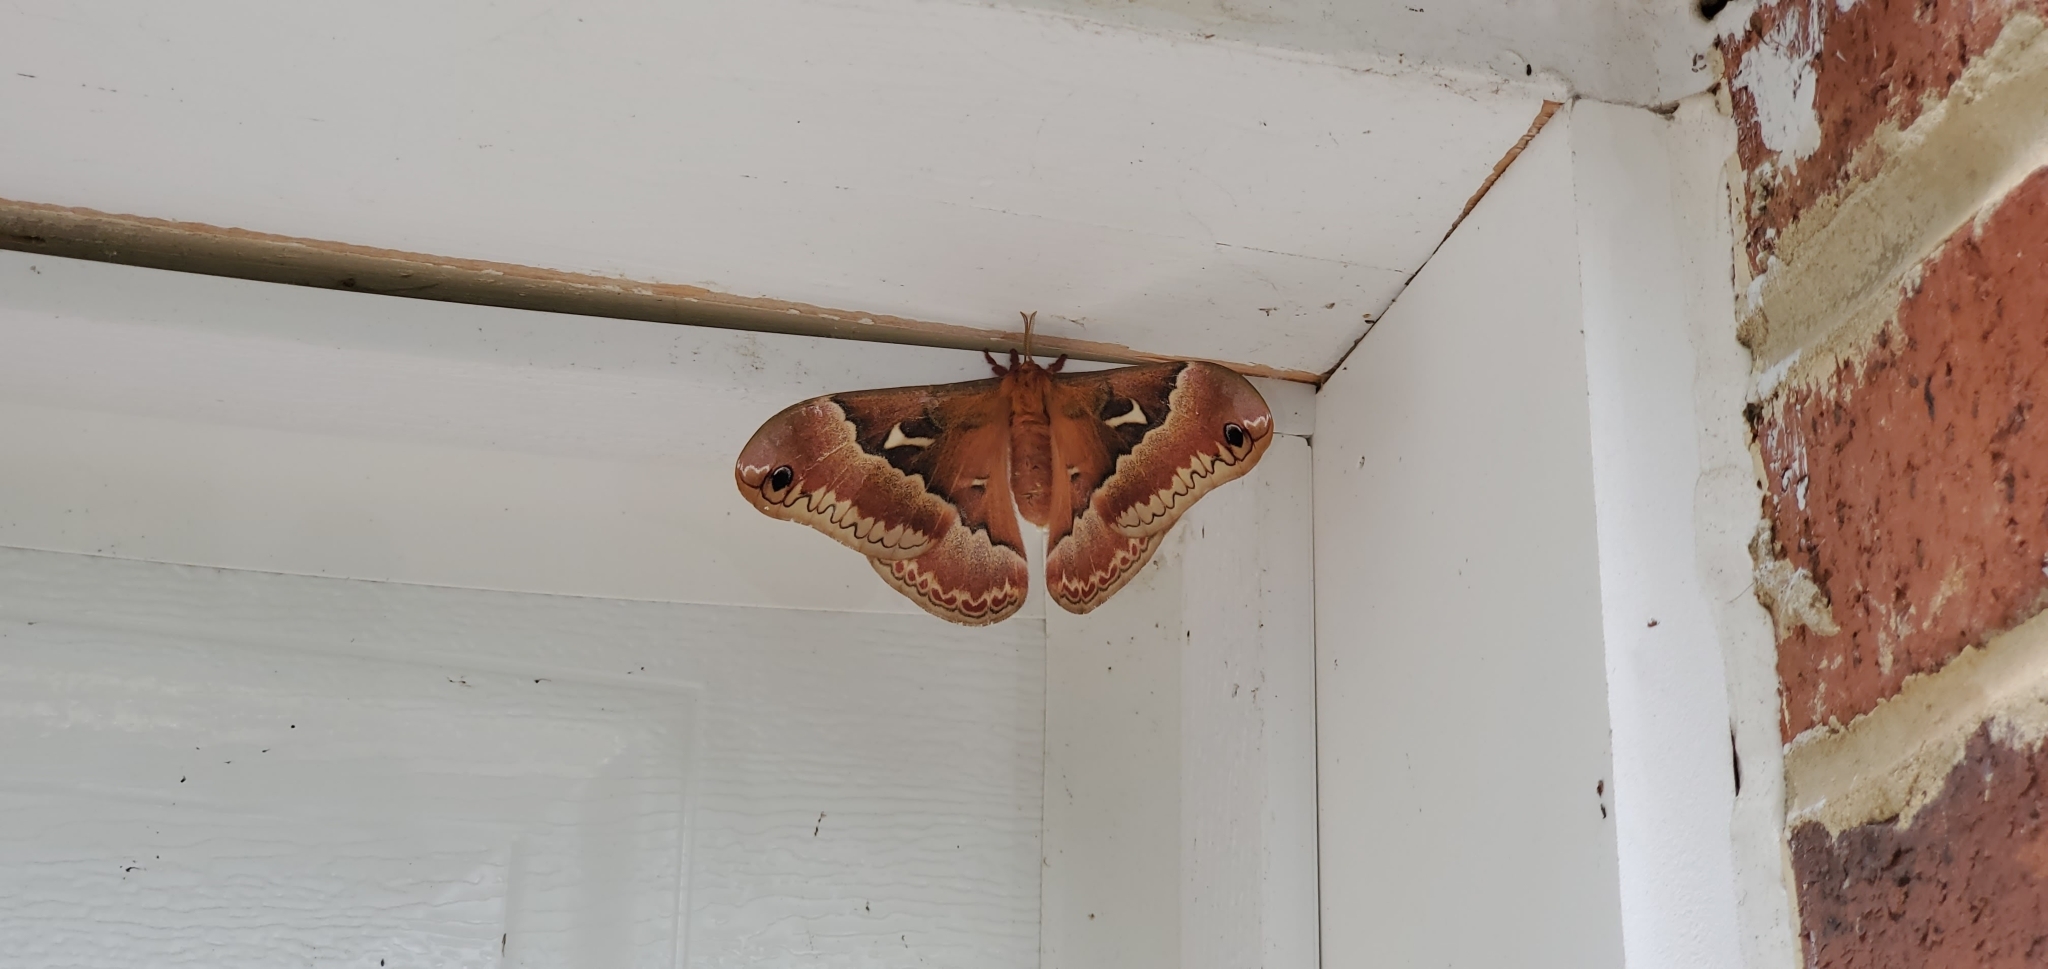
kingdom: Animalia
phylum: Arthropoda
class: Insecta
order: Lepidoptera
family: Saturniidae
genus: Callosamia
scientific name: Callosamia angulifera
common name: Tulip tree silkmoth
